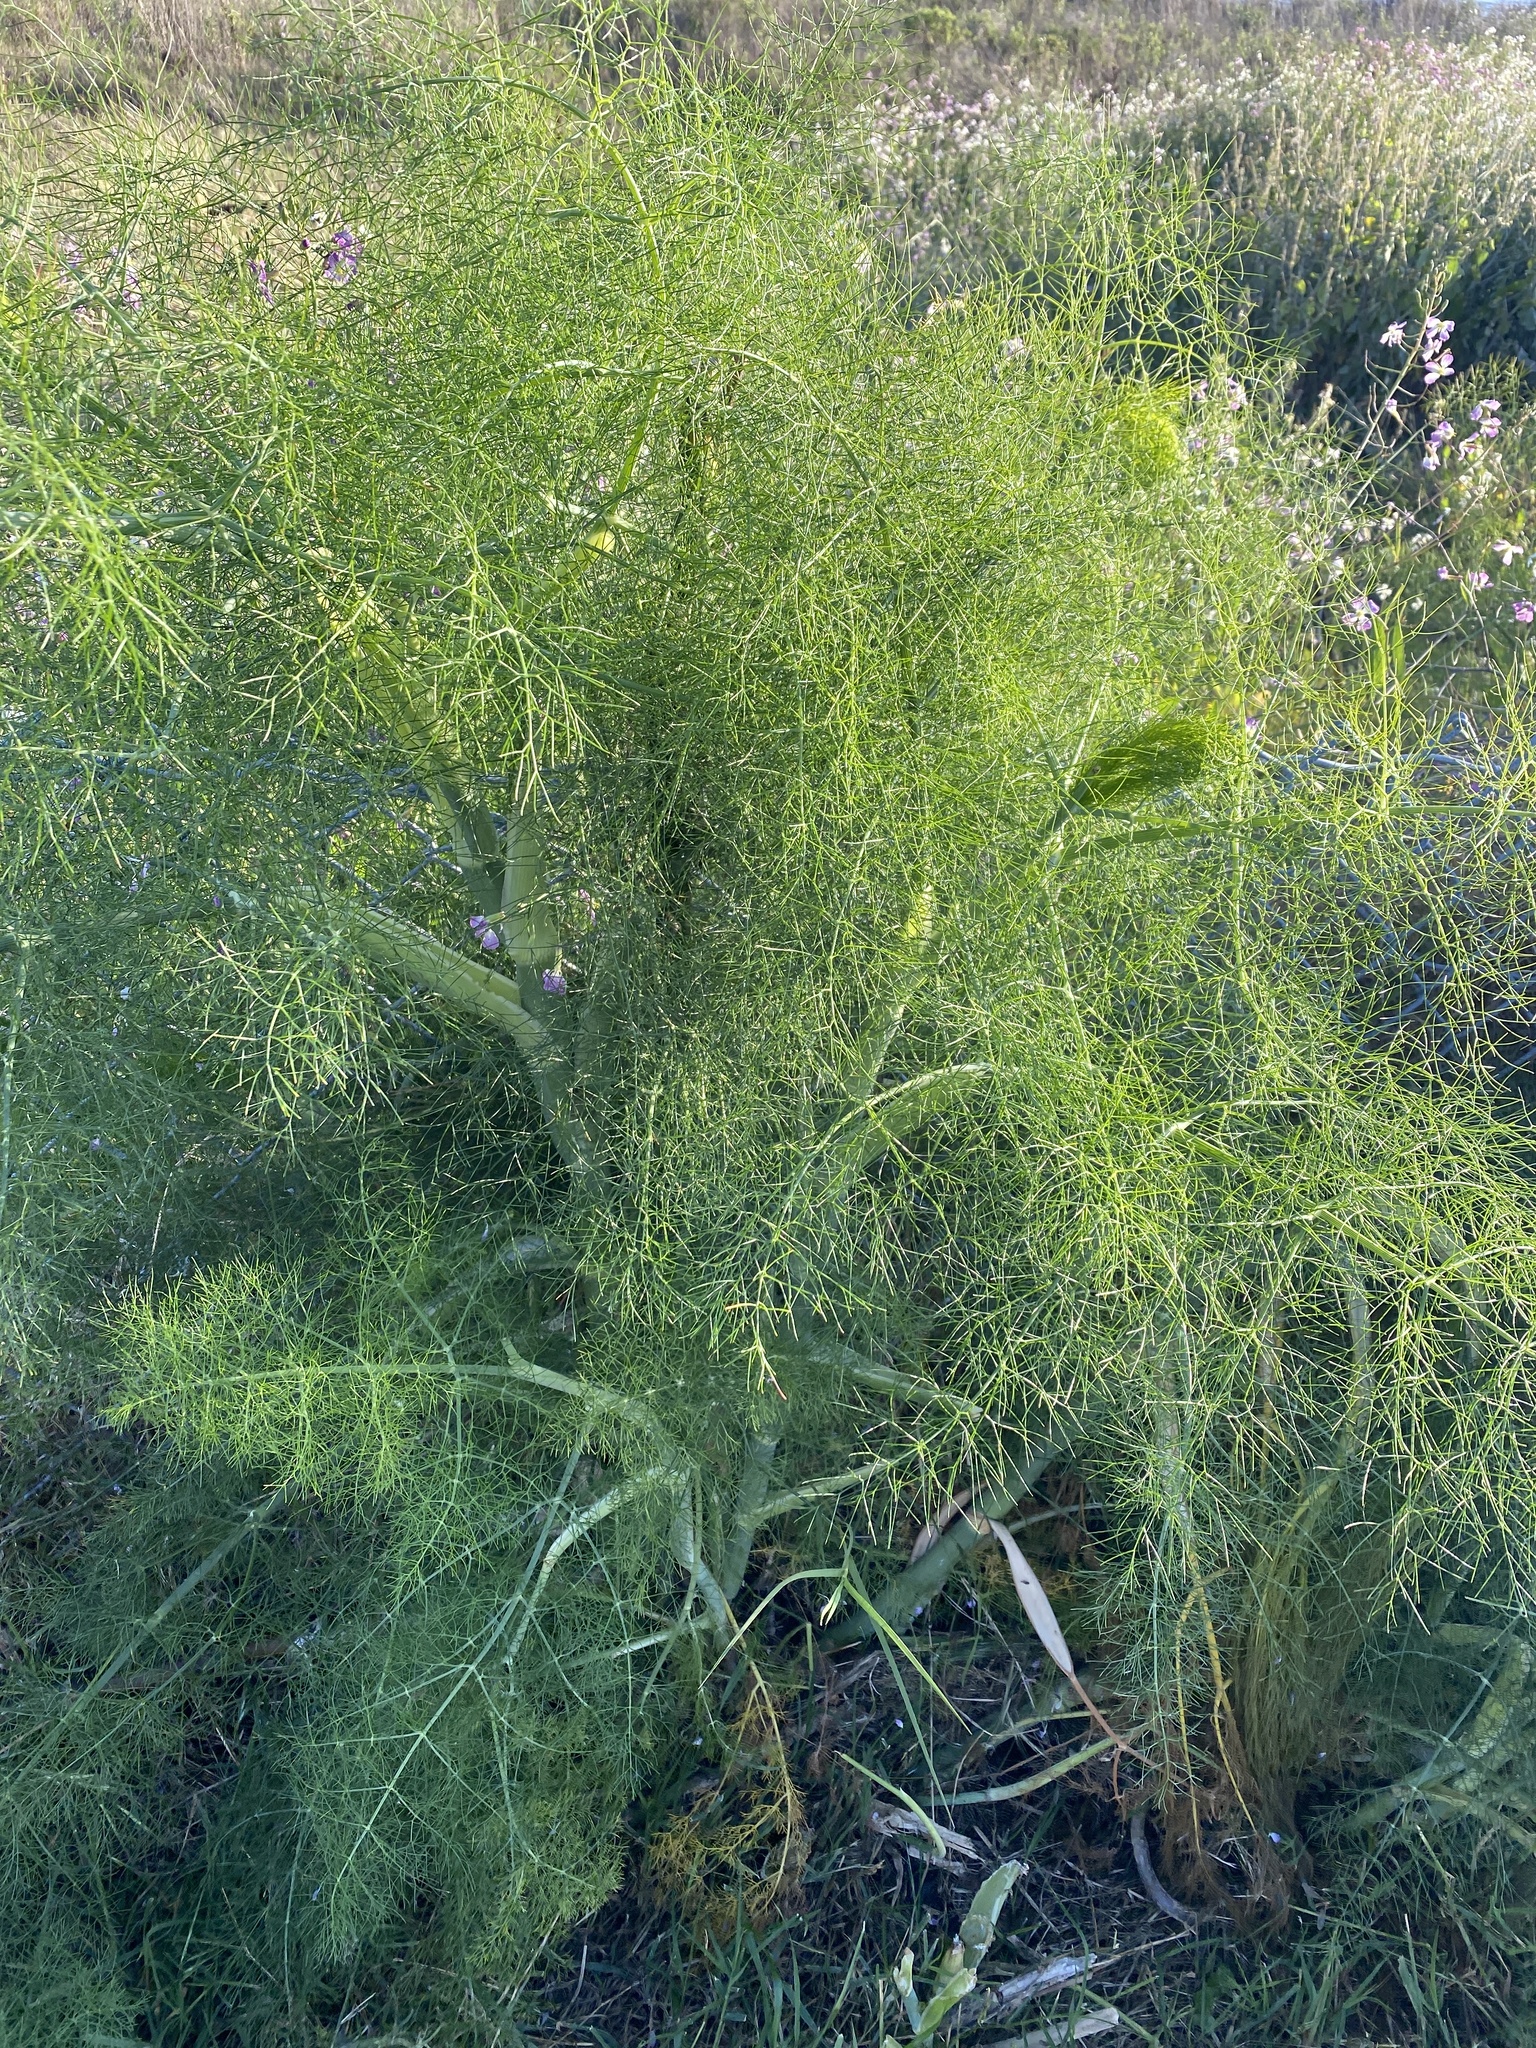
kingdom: Plantae
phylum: Tracheophyta
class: Magnoliopsida
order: Apiales
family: Apiaceae
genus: Foeniculum
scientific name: Foeniculum vulgare
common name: Fennel
